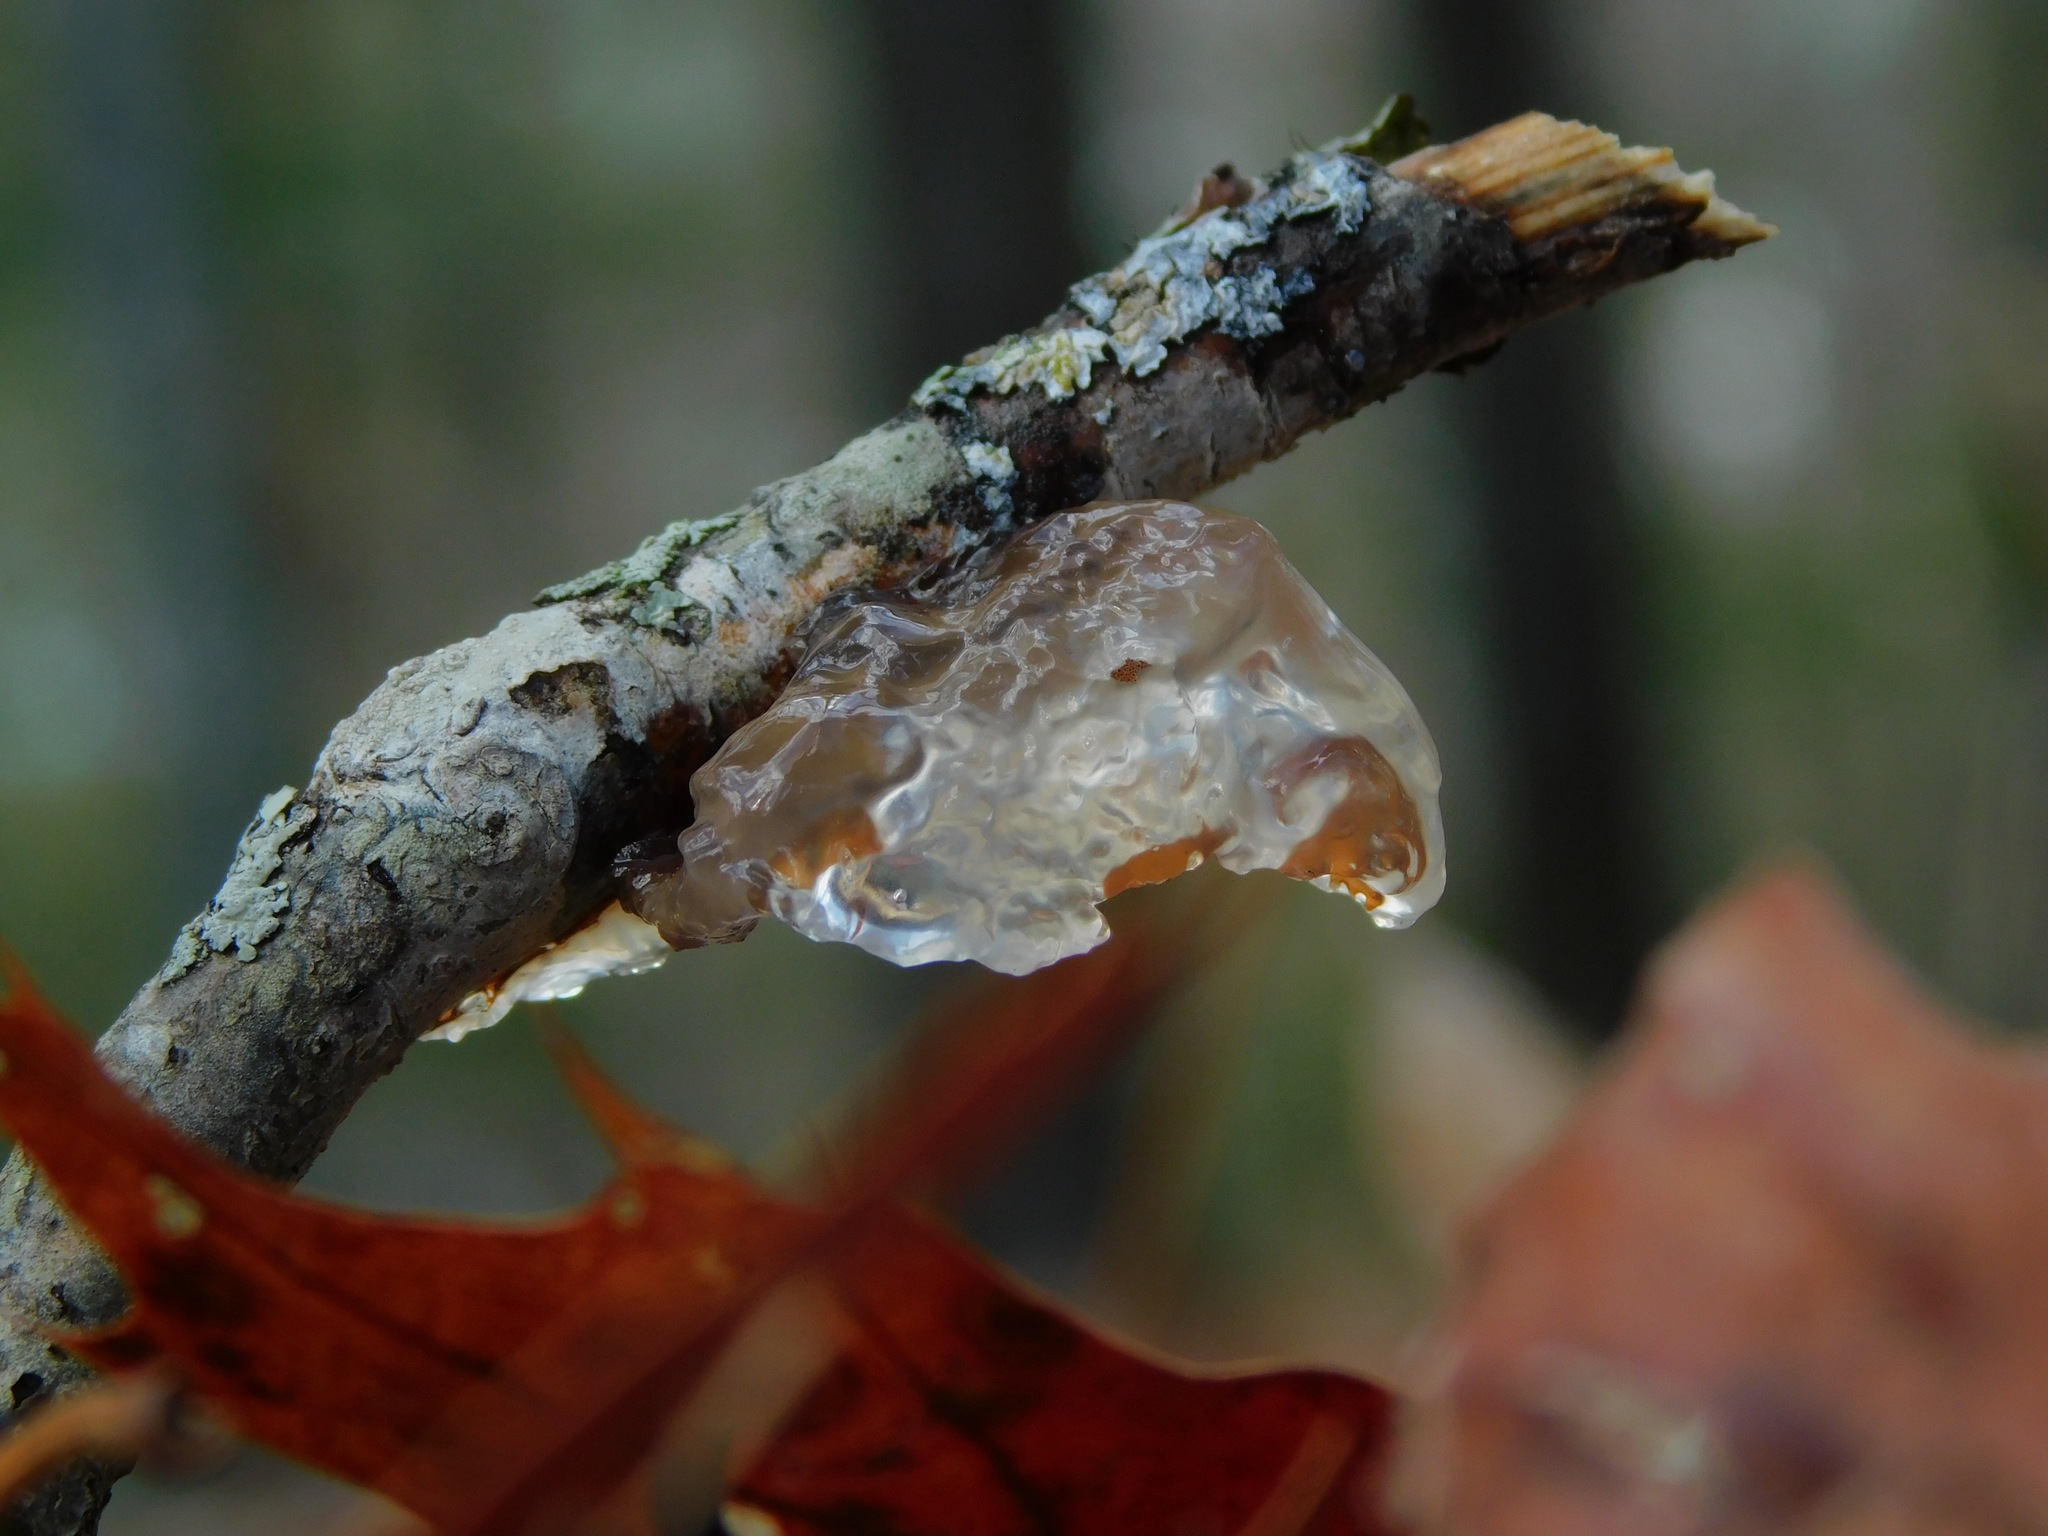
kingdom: Fungi
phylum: Basidiomycota
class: Agaricomycetes
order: Auriculariales
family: Hyaloriaceae
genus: Myxarium
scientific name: Myxarium nucleatum
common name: Crystal brain fungus
